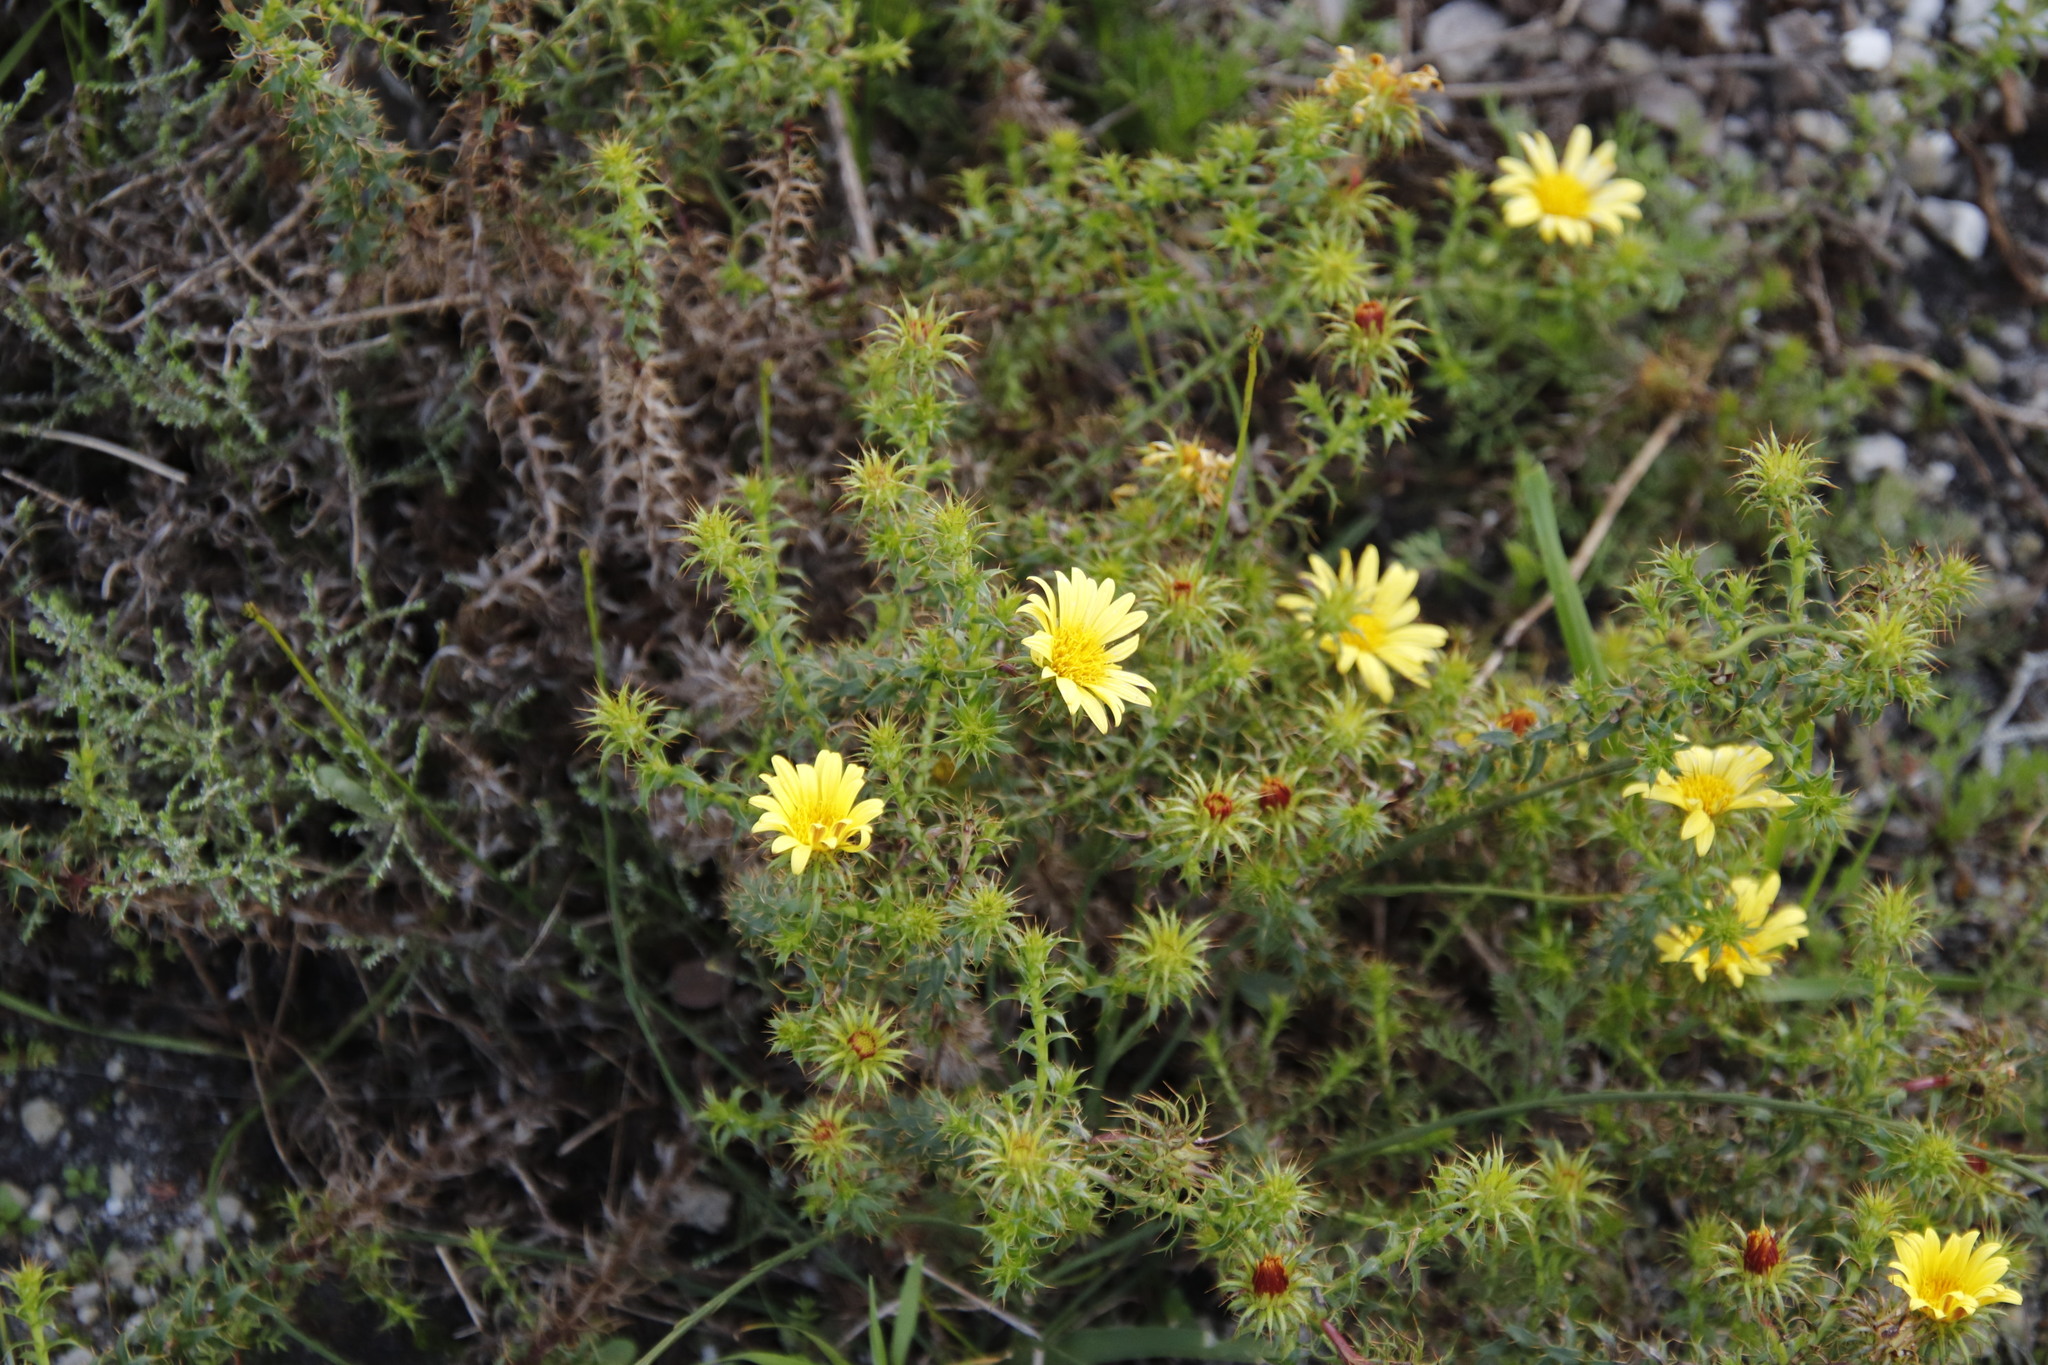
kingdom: Plantae
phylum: Tracheophyta
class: Magnoliopsida
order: Asterales
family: Asteraceae
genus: Cullumia
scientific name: Cullumia setosa
